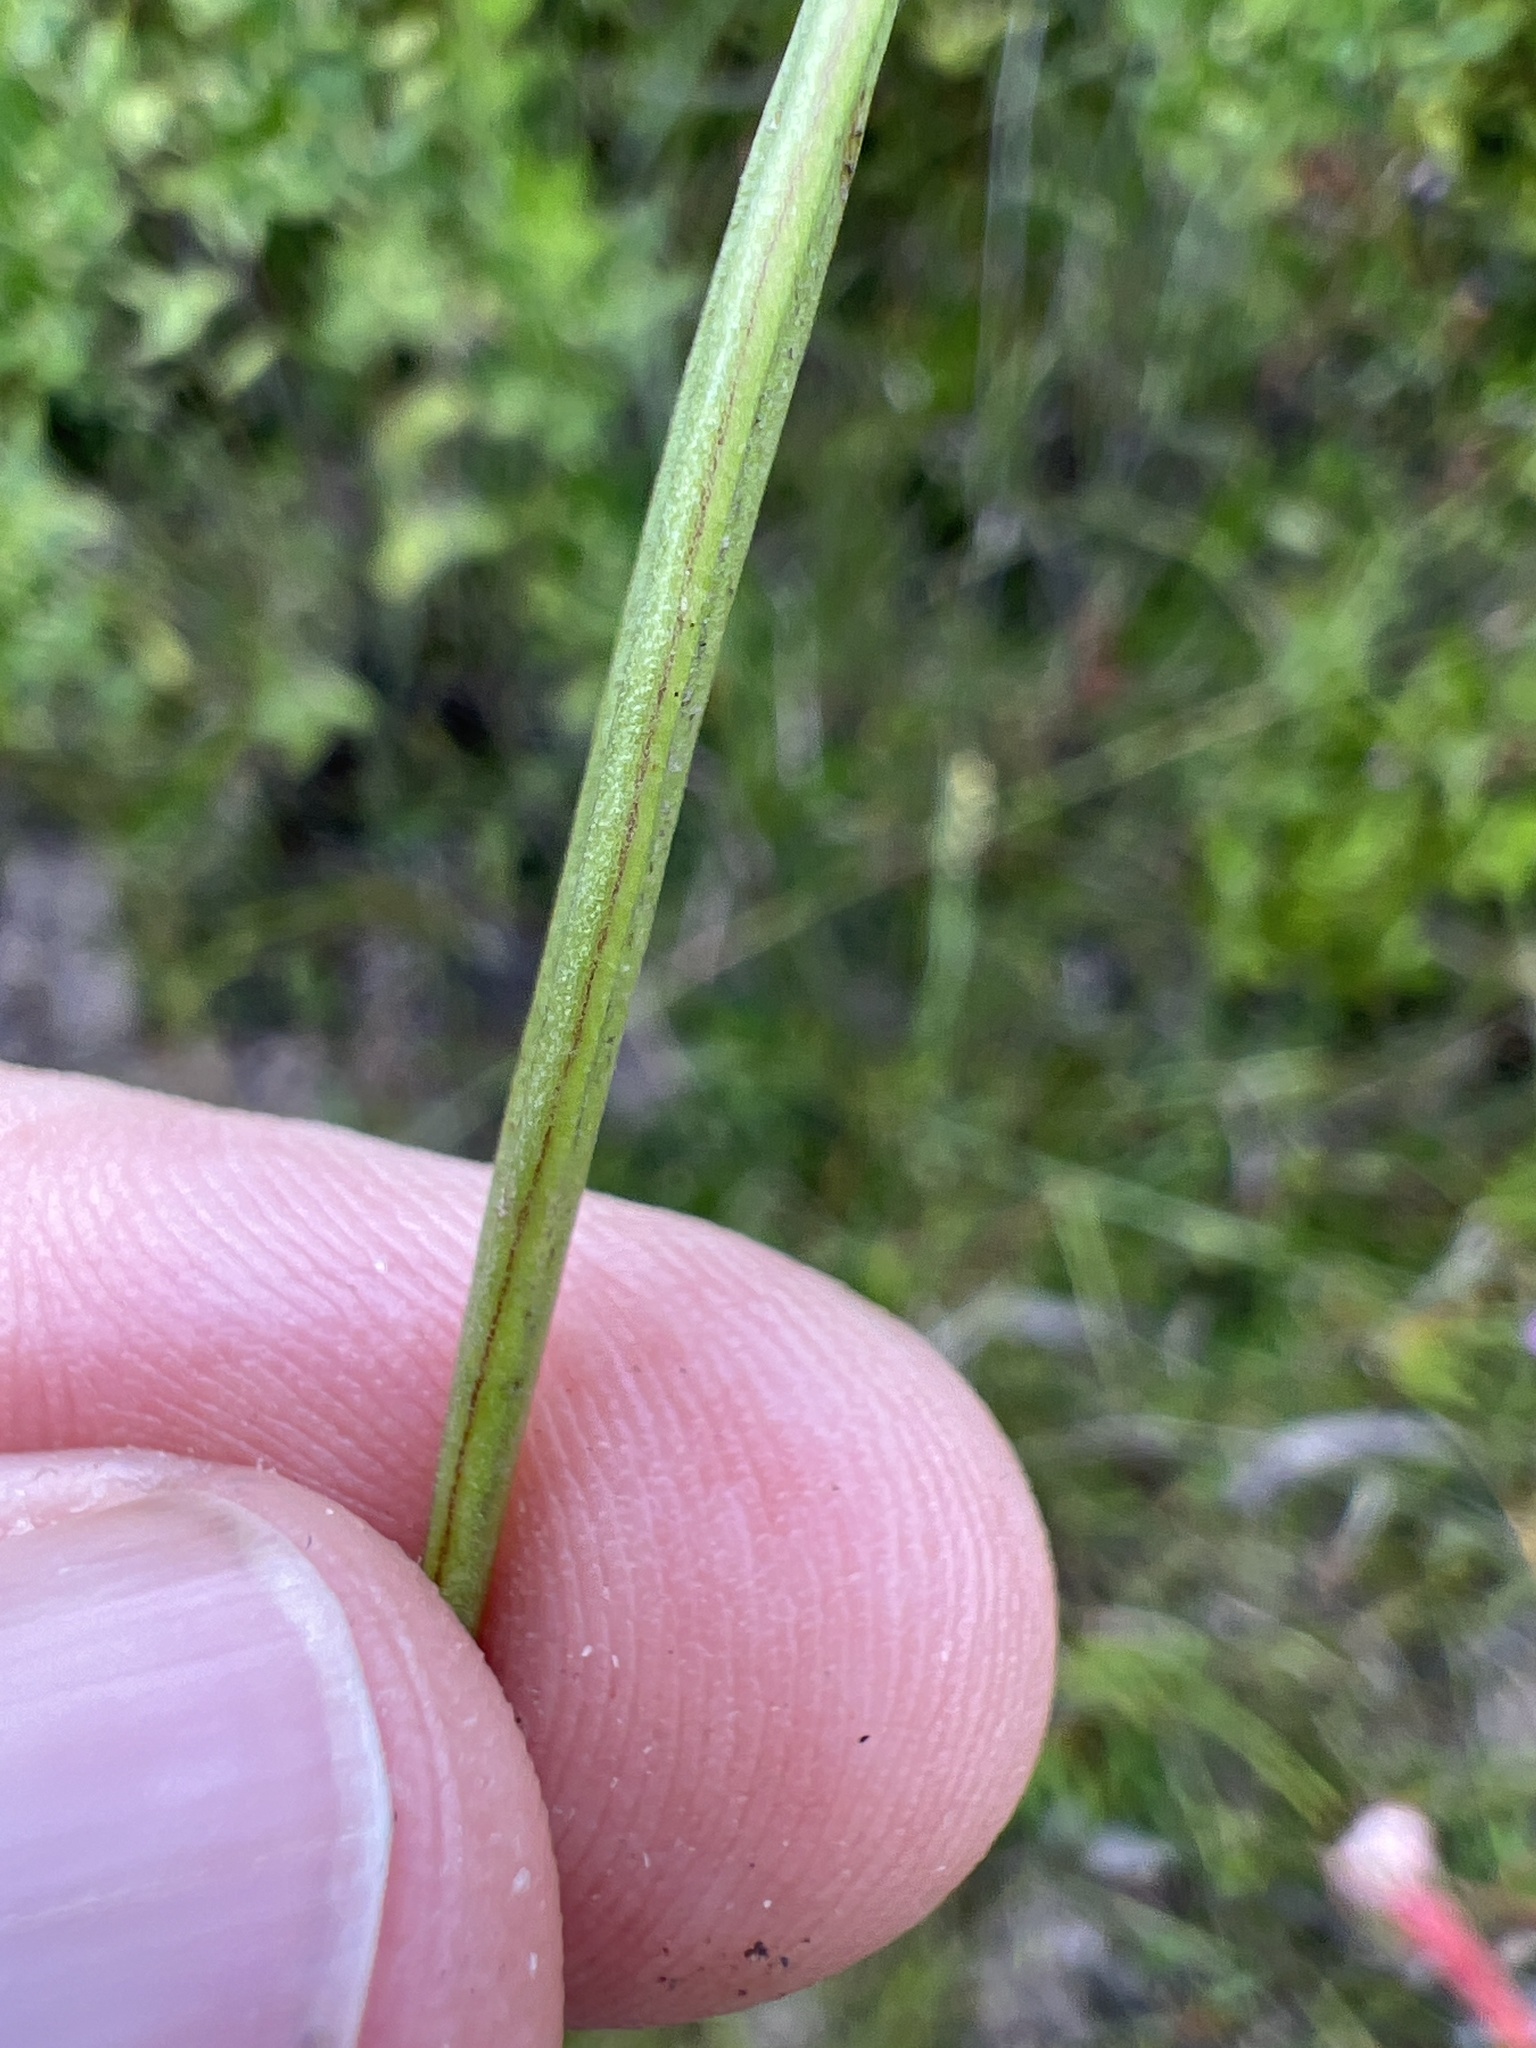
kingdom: Plantae
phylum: Tracheophyta
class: Magnoliopsida
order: Asterales
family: Asteraceae
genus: Coreopsis
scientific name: Coreopsis gladiata
